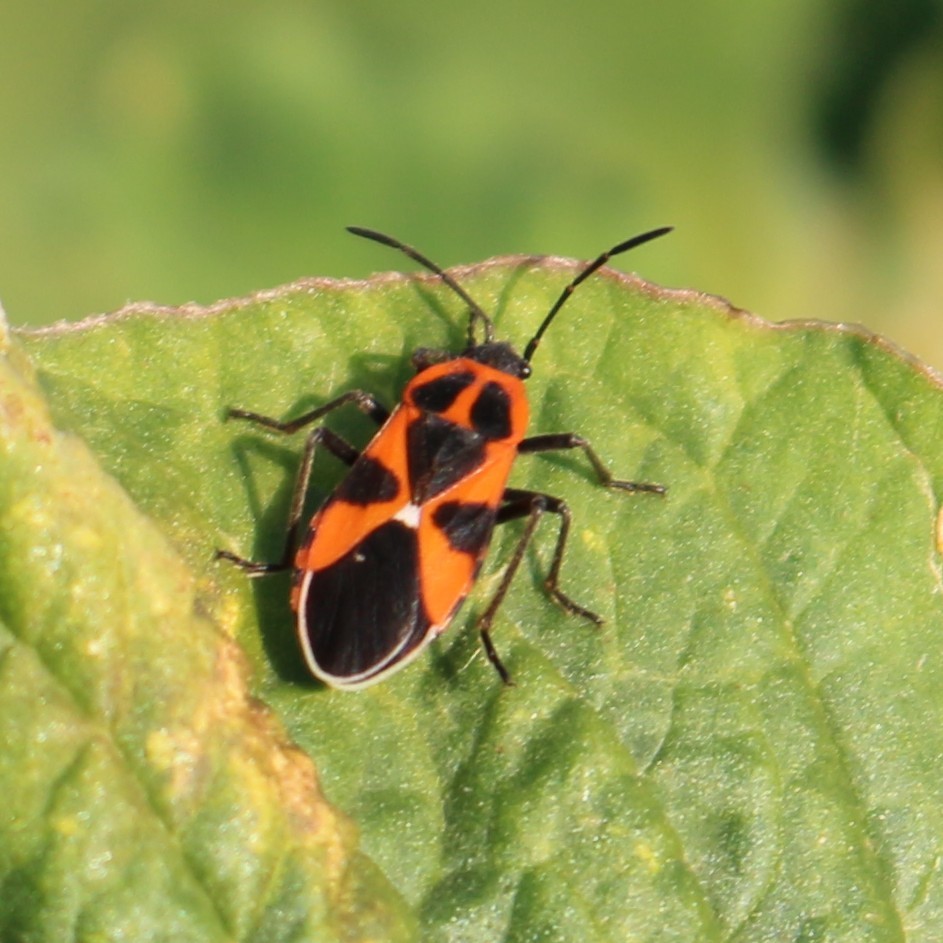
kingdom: Animalia
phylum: Arthropoda
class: Insecta
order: Hemiptera
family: Lygaeidae
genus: Tropidothorax
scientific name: Tropidothorax leucopterus
